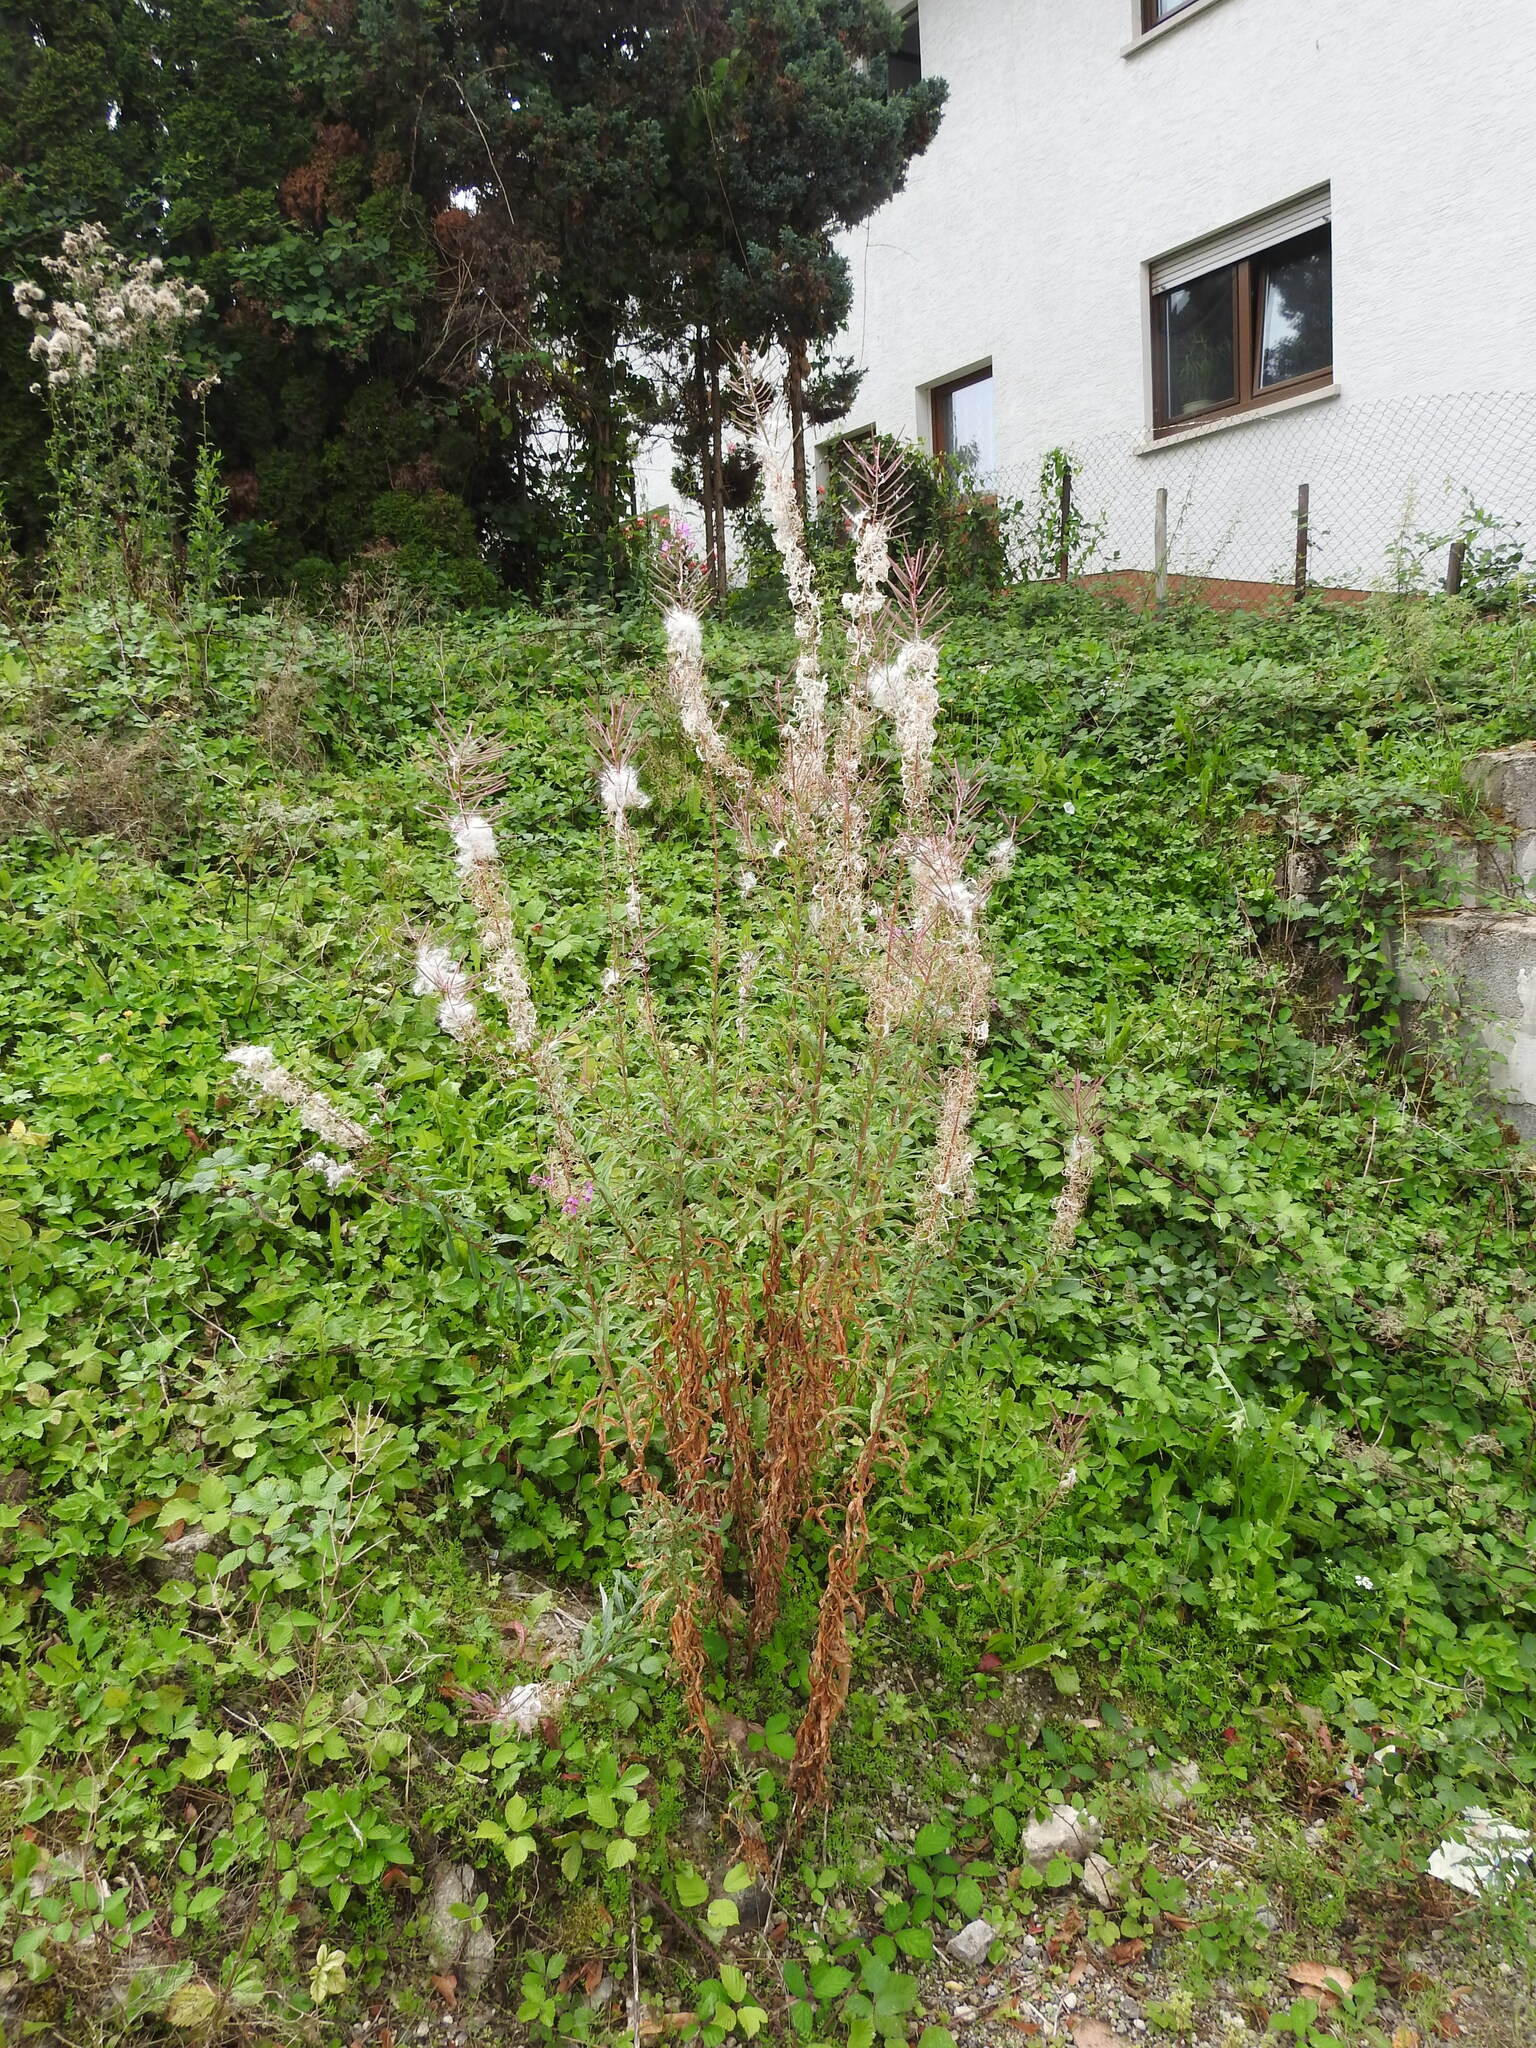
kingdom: Plantae
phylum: Tracheophyta
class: Magnoliopsida
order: Myrtales
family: Onagraceae
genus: Chamaenerion
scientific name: Chamaenerion angustifolium
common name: Fireweed
